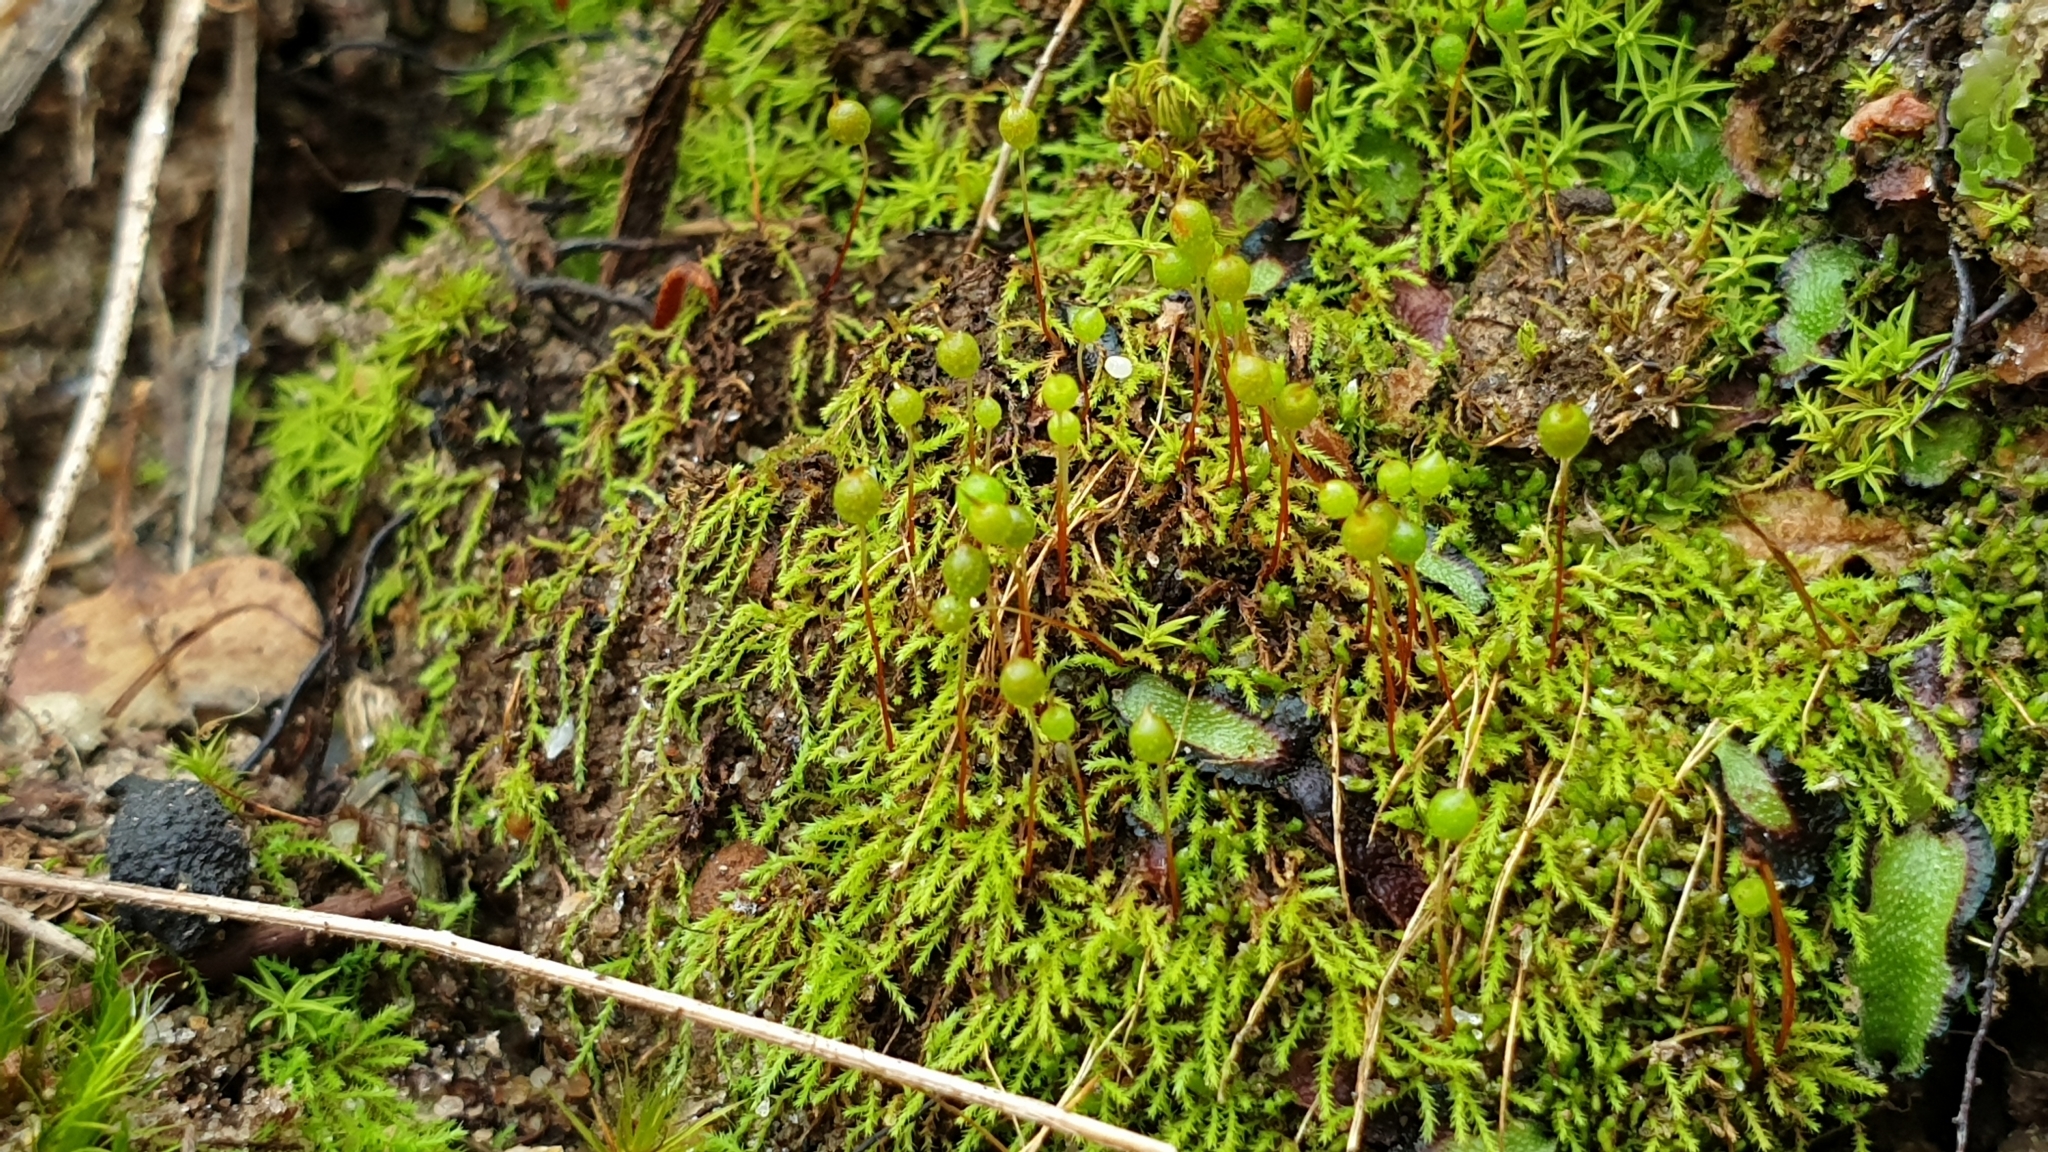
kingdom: Plantae
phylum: Bryophyta
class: Bryopsida
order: Bartramiales
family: Bartramiaceae
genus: Philonotis
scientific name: Philonotis tenuis
